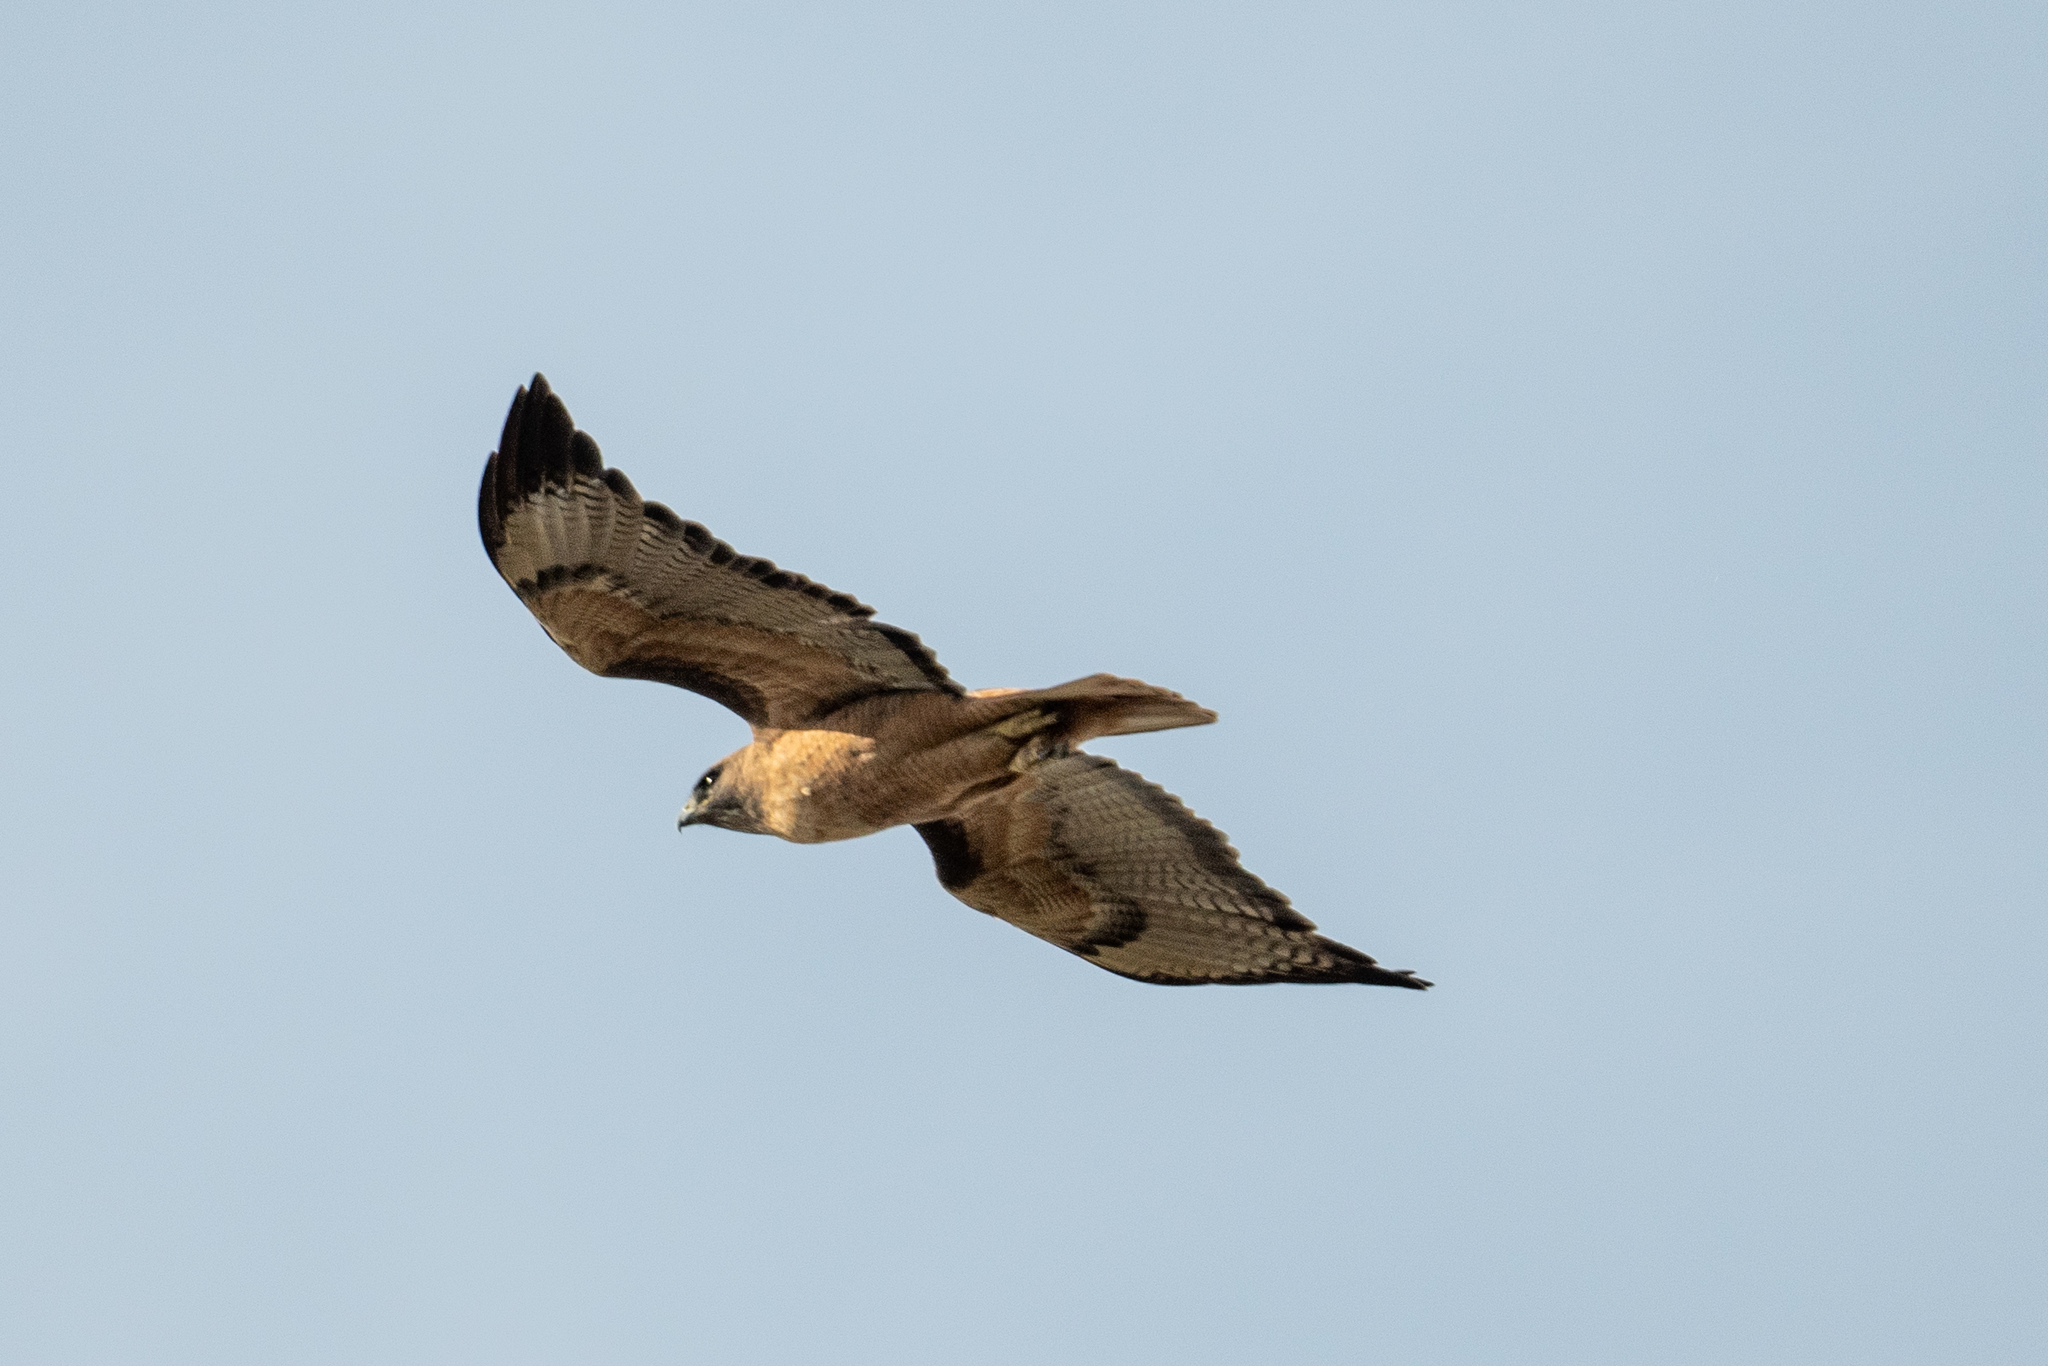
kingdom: Animalia
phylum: Chordata
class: Aves
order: Accipitriformes
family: Accipitridae
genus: Buteo
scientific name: Buteo jamaicensis
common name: Red-tailed hawk
